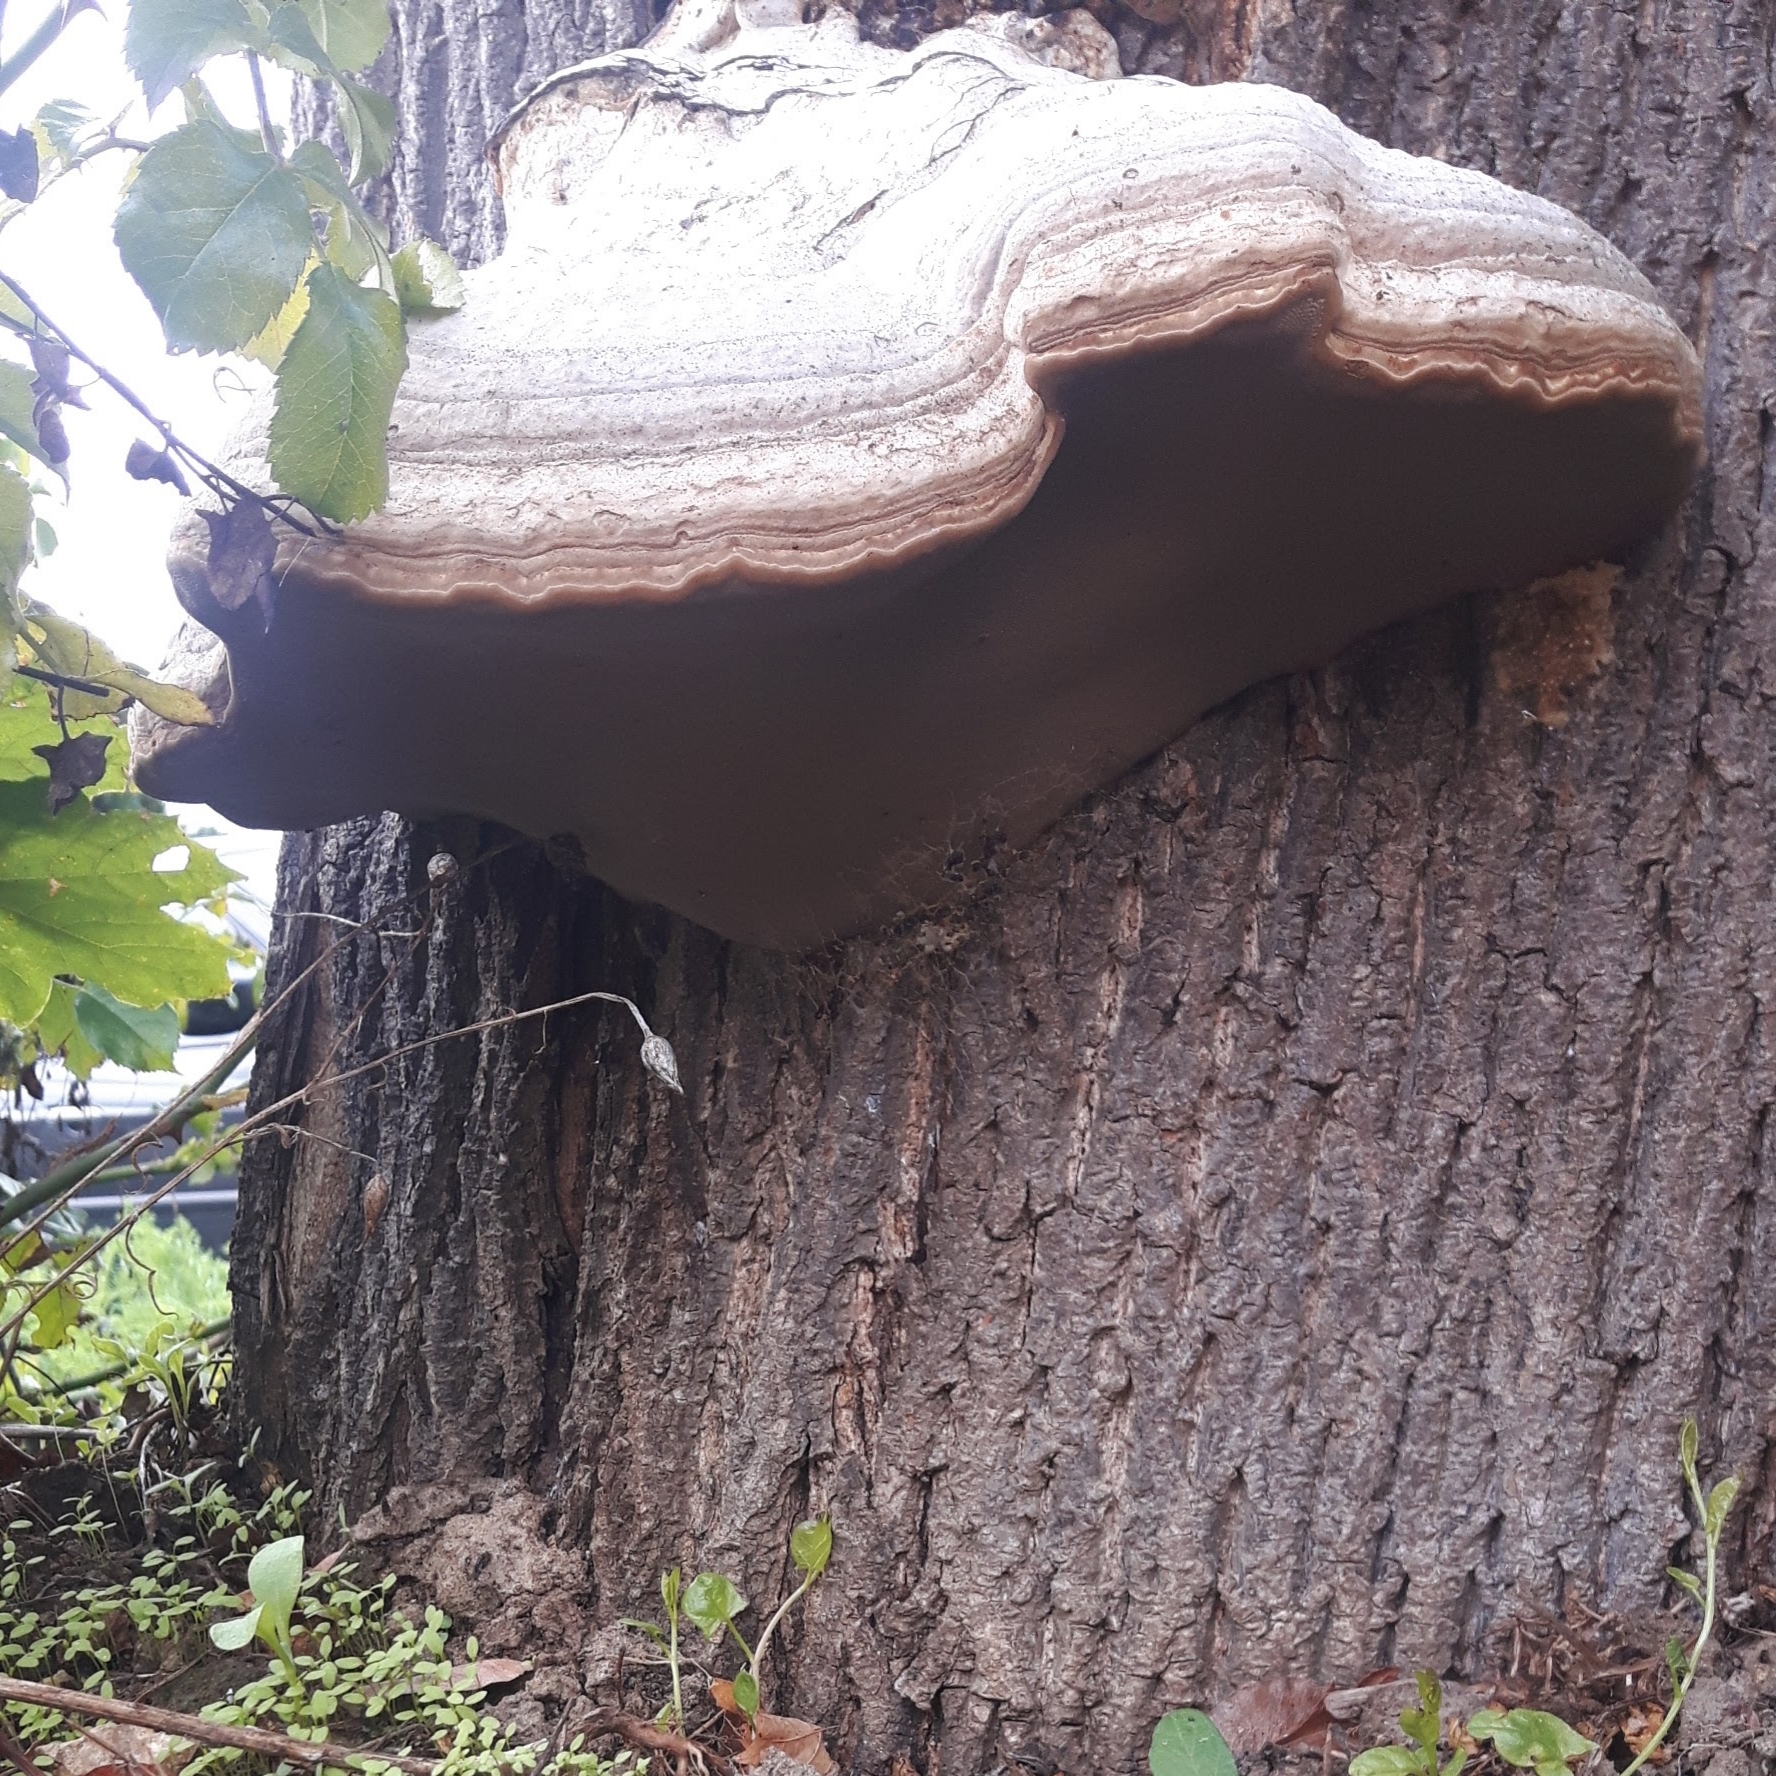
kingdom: Fungi
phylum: Basidiomycota
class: Agaricomycetes
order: Polyporales
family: Polyporaceae
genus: Fomes
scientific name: Fomes fomentarius
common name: Hoof fungus
